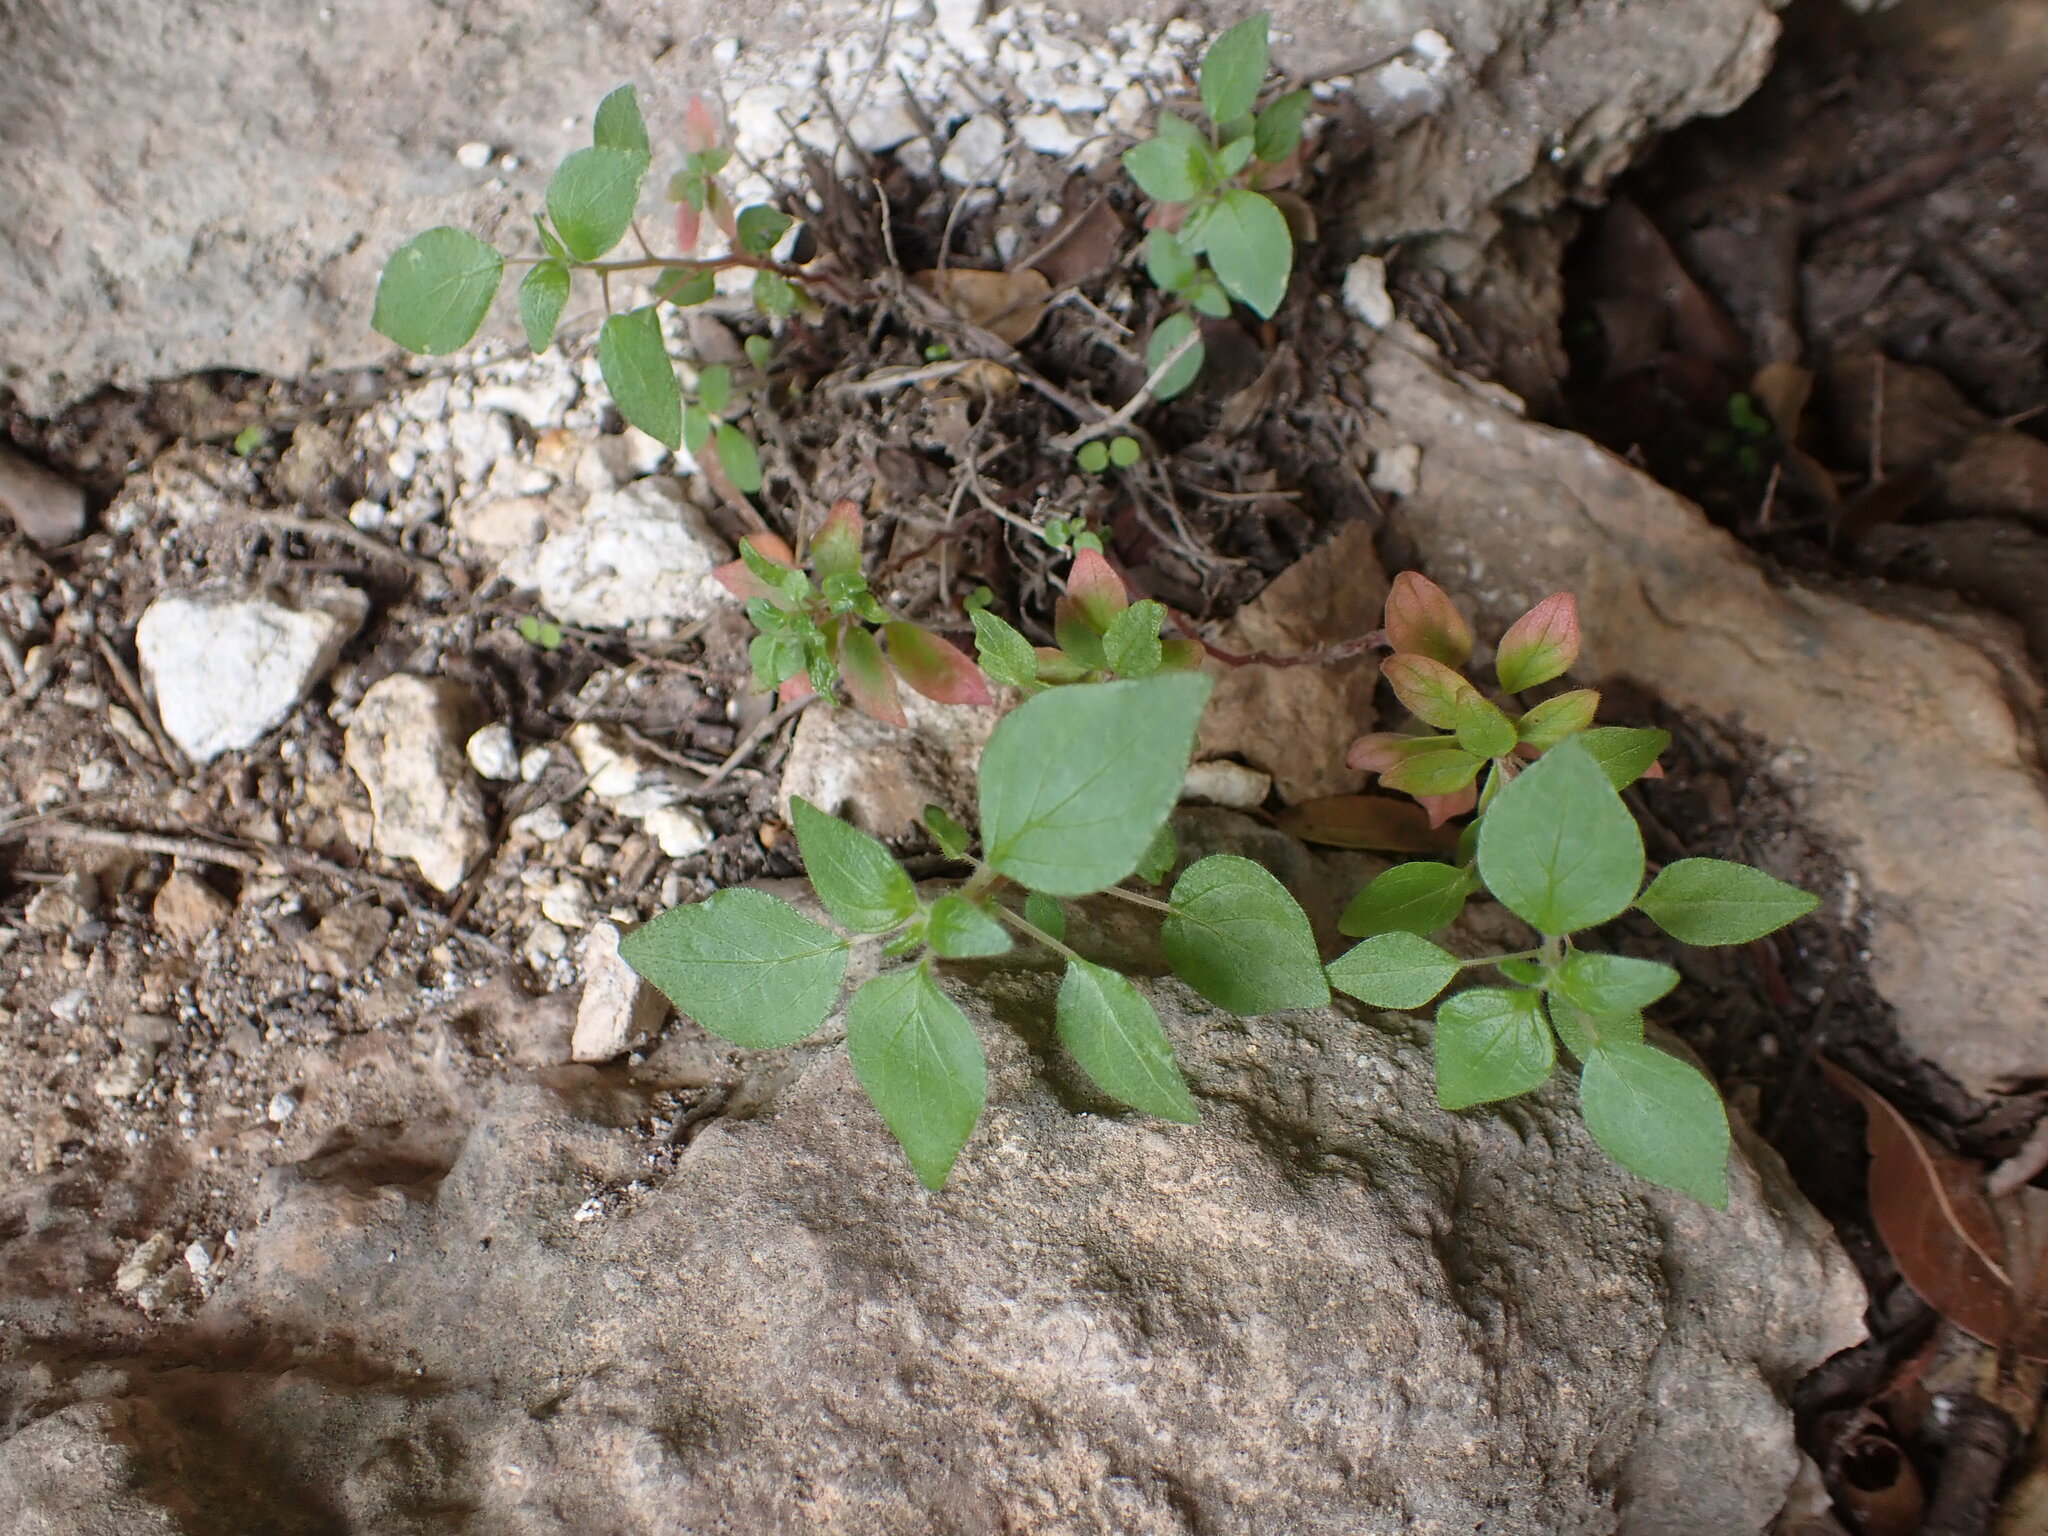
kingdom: Plantae
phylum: Tracheophyta
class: Magnoliopsida
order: Rosales
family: Urticaceae
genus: Parietaria
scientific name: Parietaria judaica
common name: Pellitory-of-the-wall
